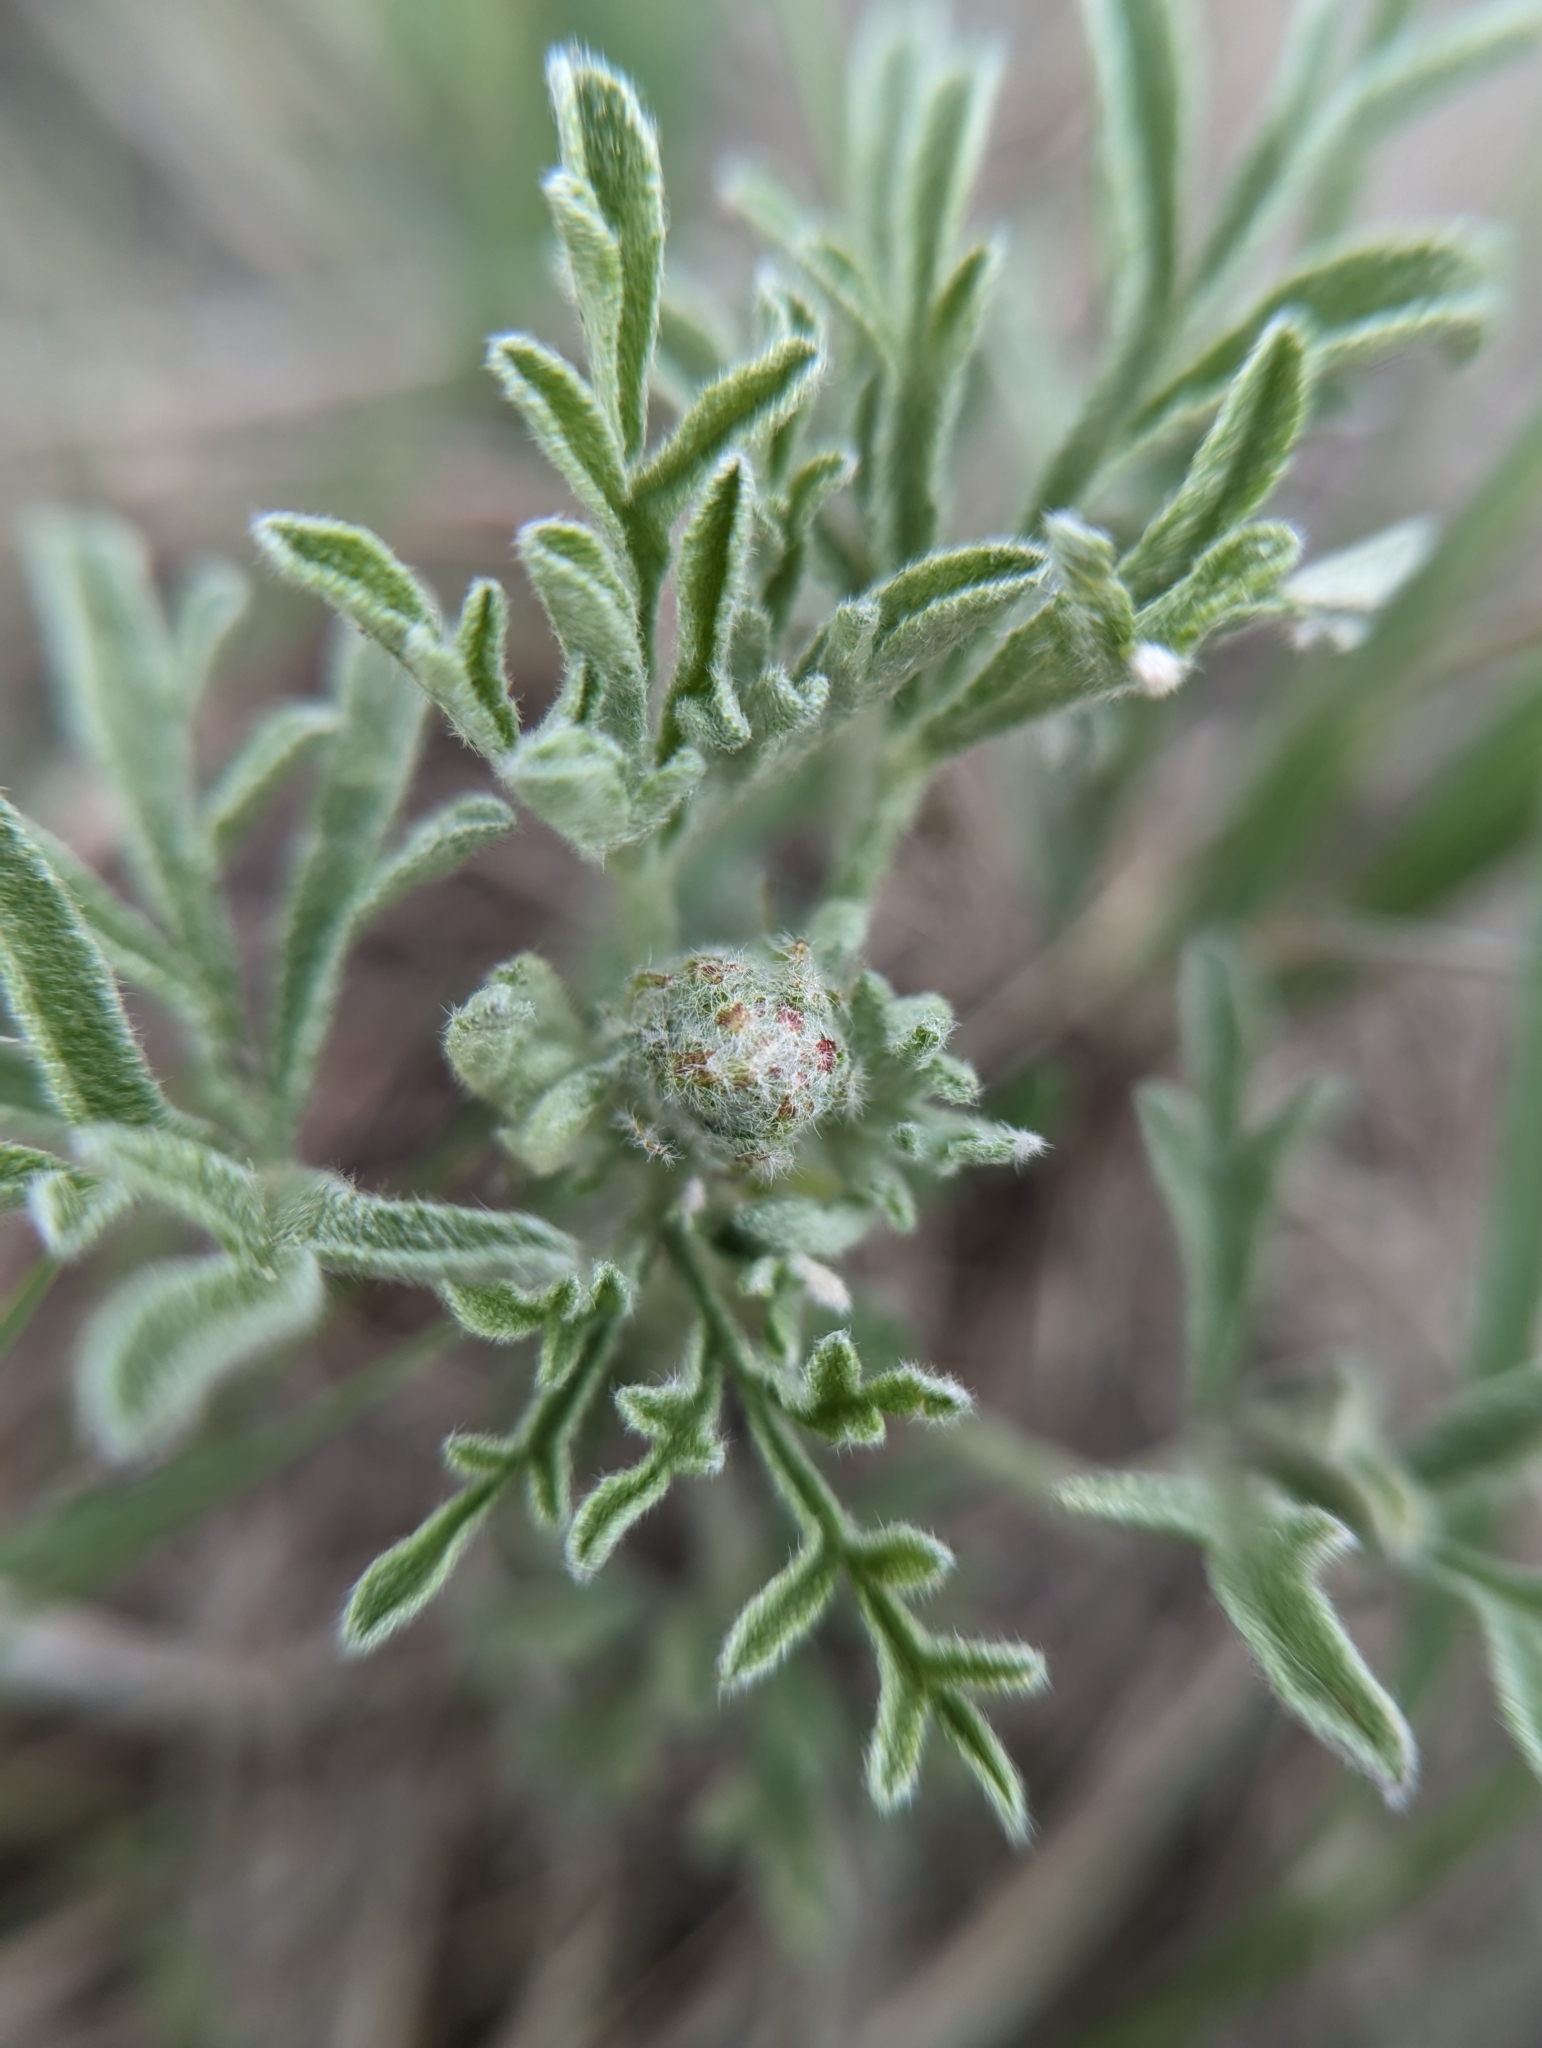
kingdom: Plantae
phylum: Tracheophyta
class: Magnoliopsida
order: Malvales
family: Malvaceae
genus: Sphaeralcea
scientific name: Sphaeralcea coccinea
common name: Moss-rose
